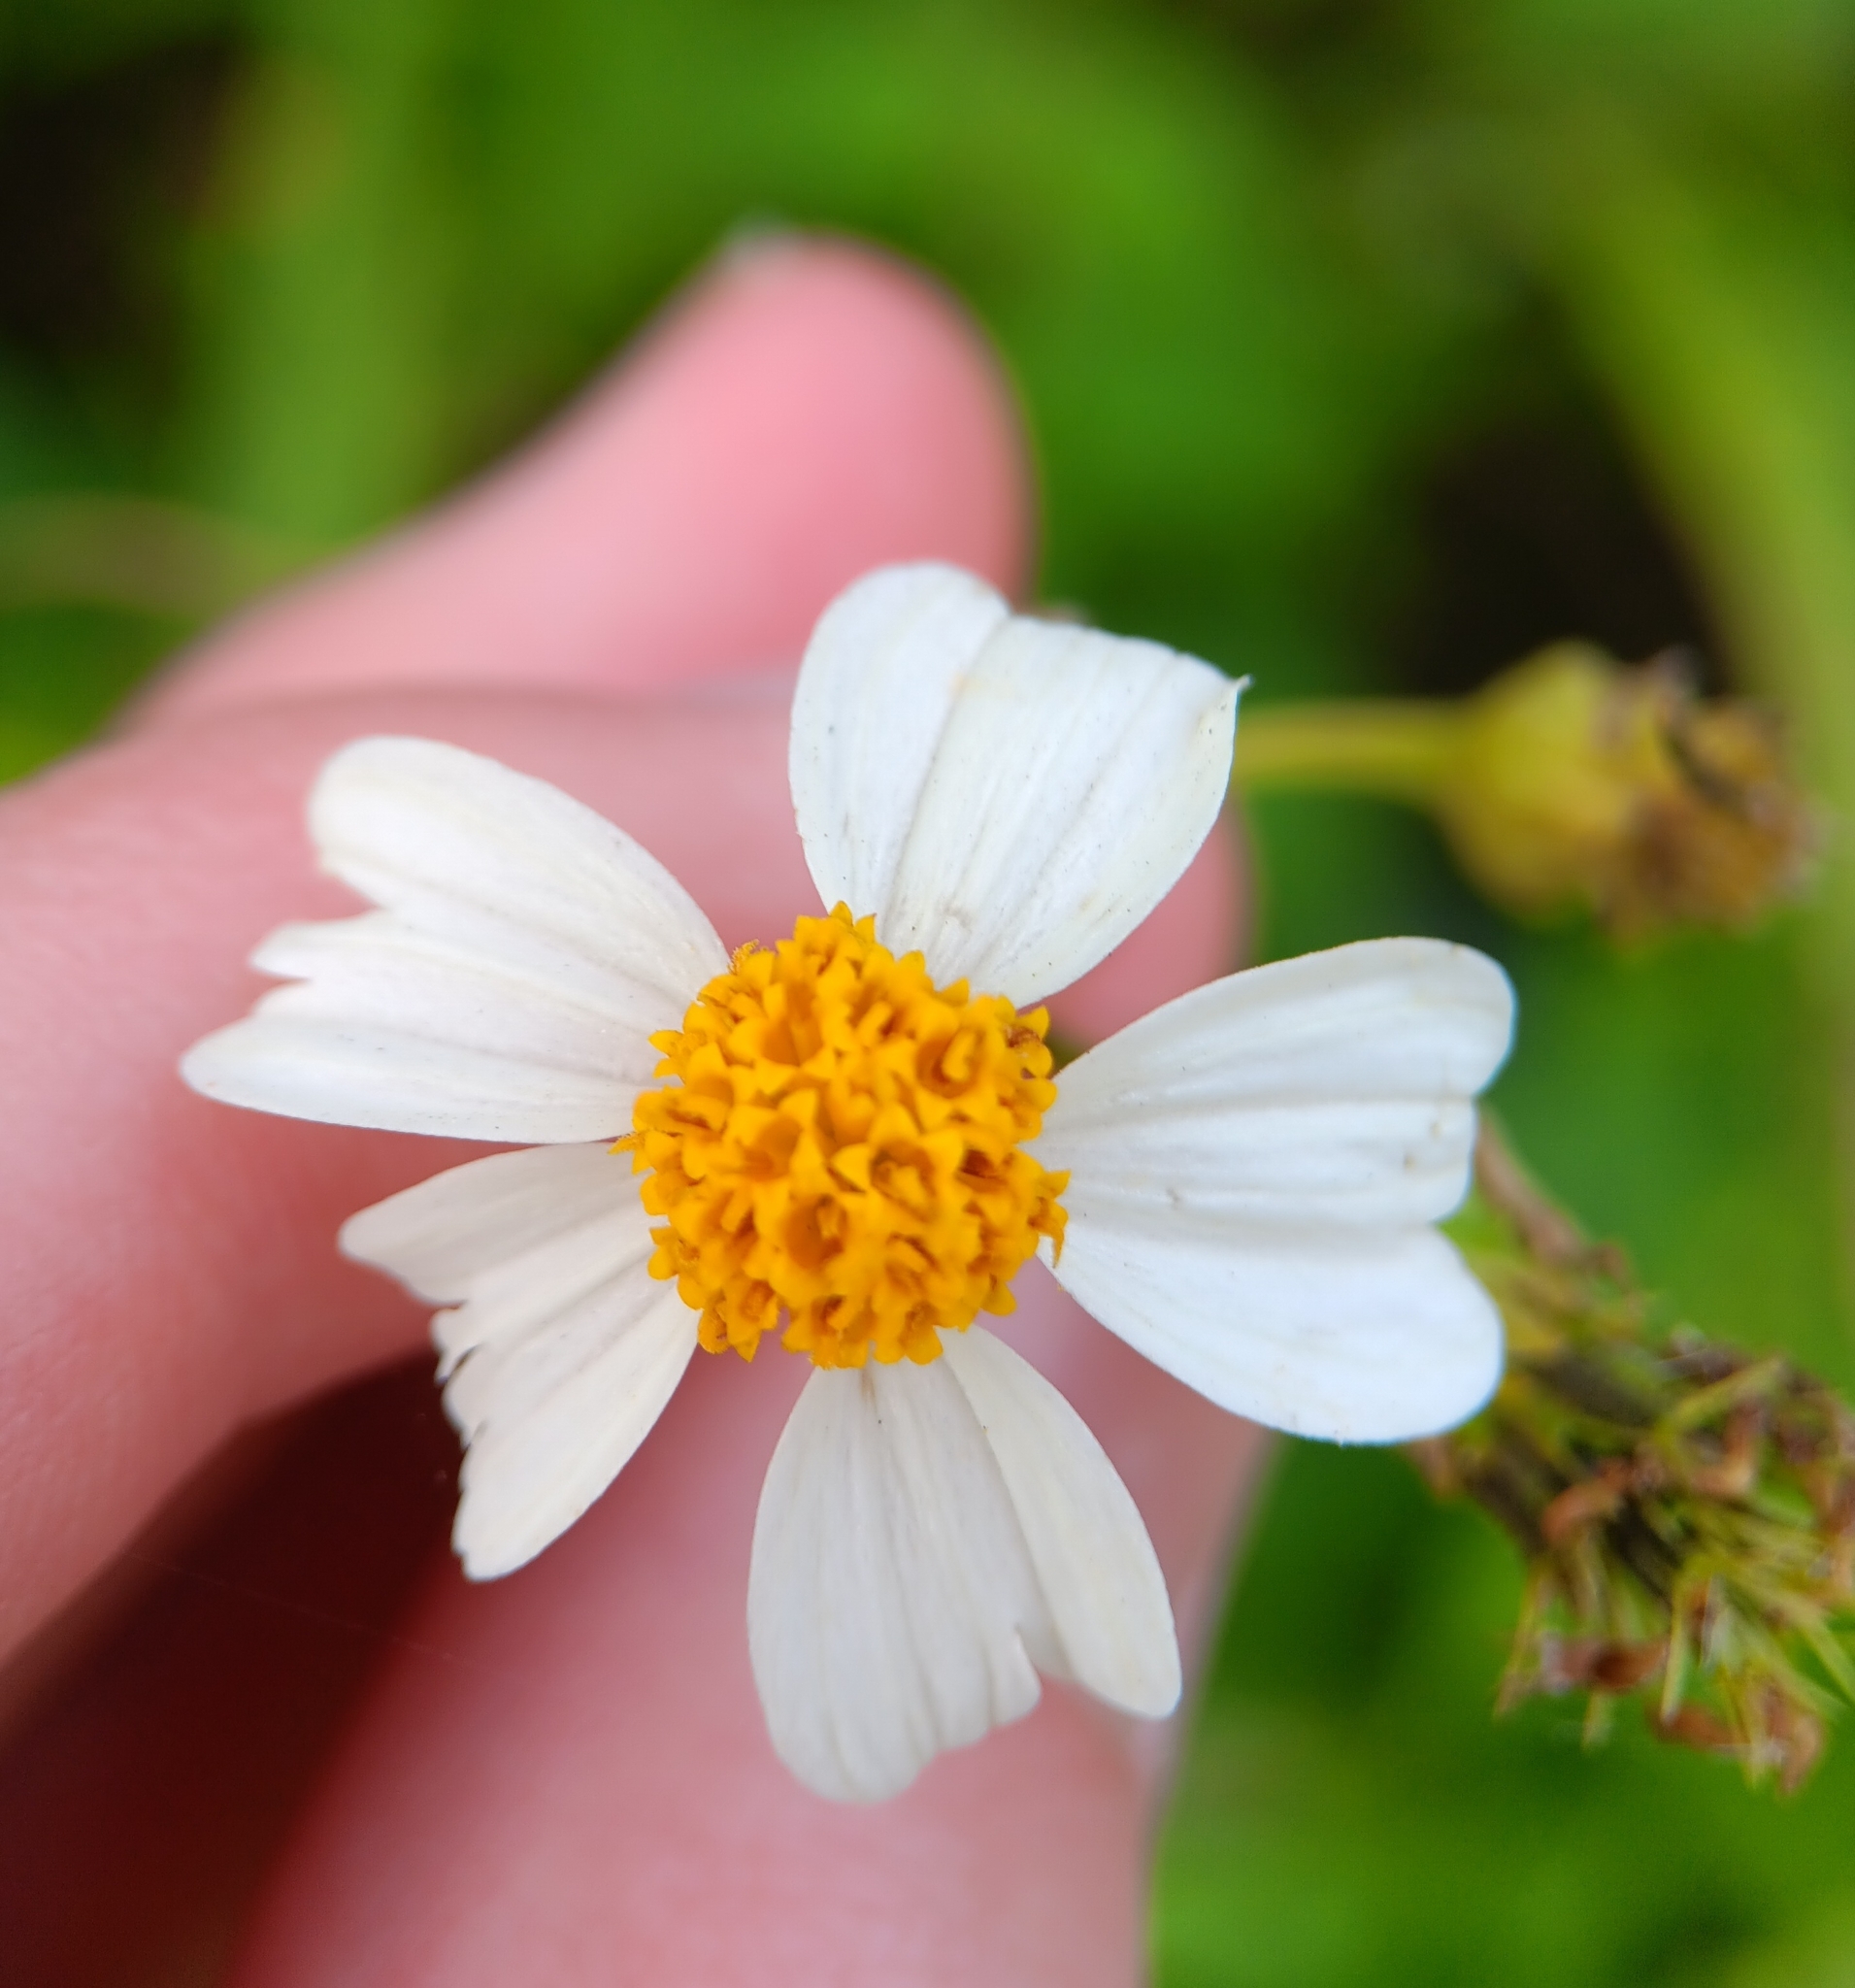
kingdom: Plantae
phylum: Tracheophyta
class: Magnoliopsida
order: Asterales
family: Asteraceae
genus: Bidens
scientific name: Bidens alba
